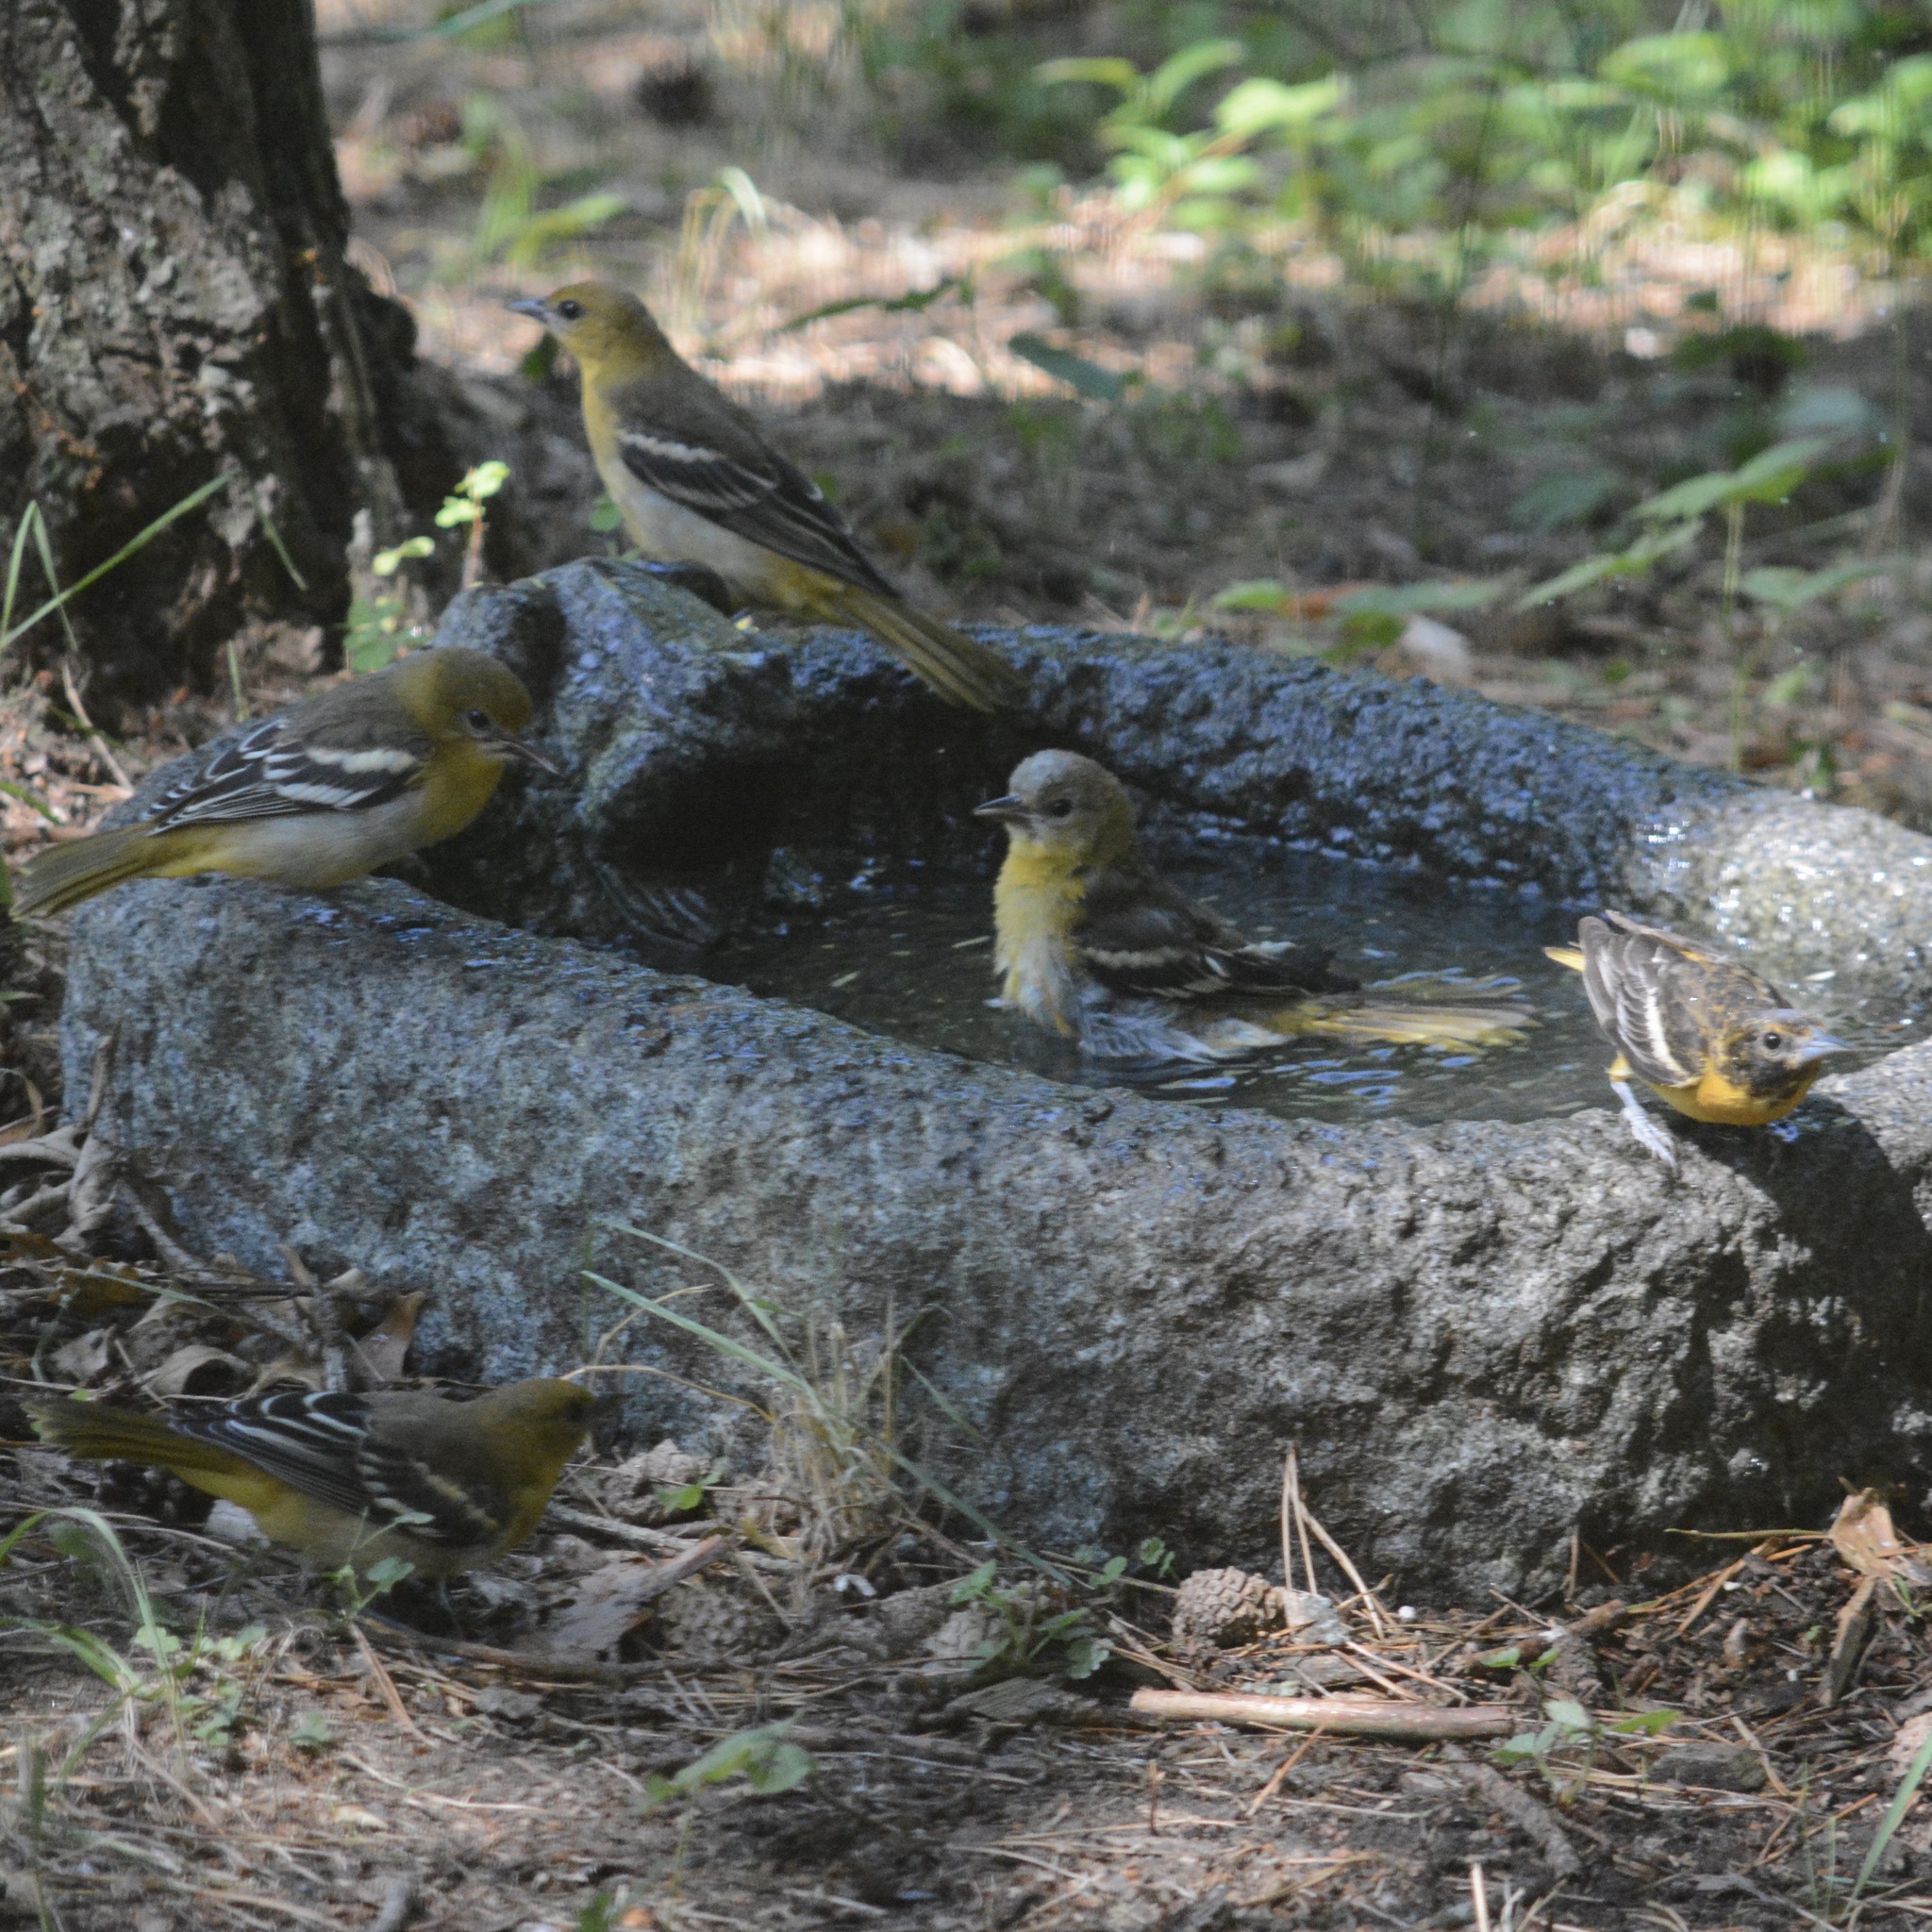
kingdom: Animalia
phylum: Chordata
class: Aves
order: Passeriformes
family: Icteridae
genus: Icterus
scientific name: Icterus galbula
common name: Baltimore oriole
